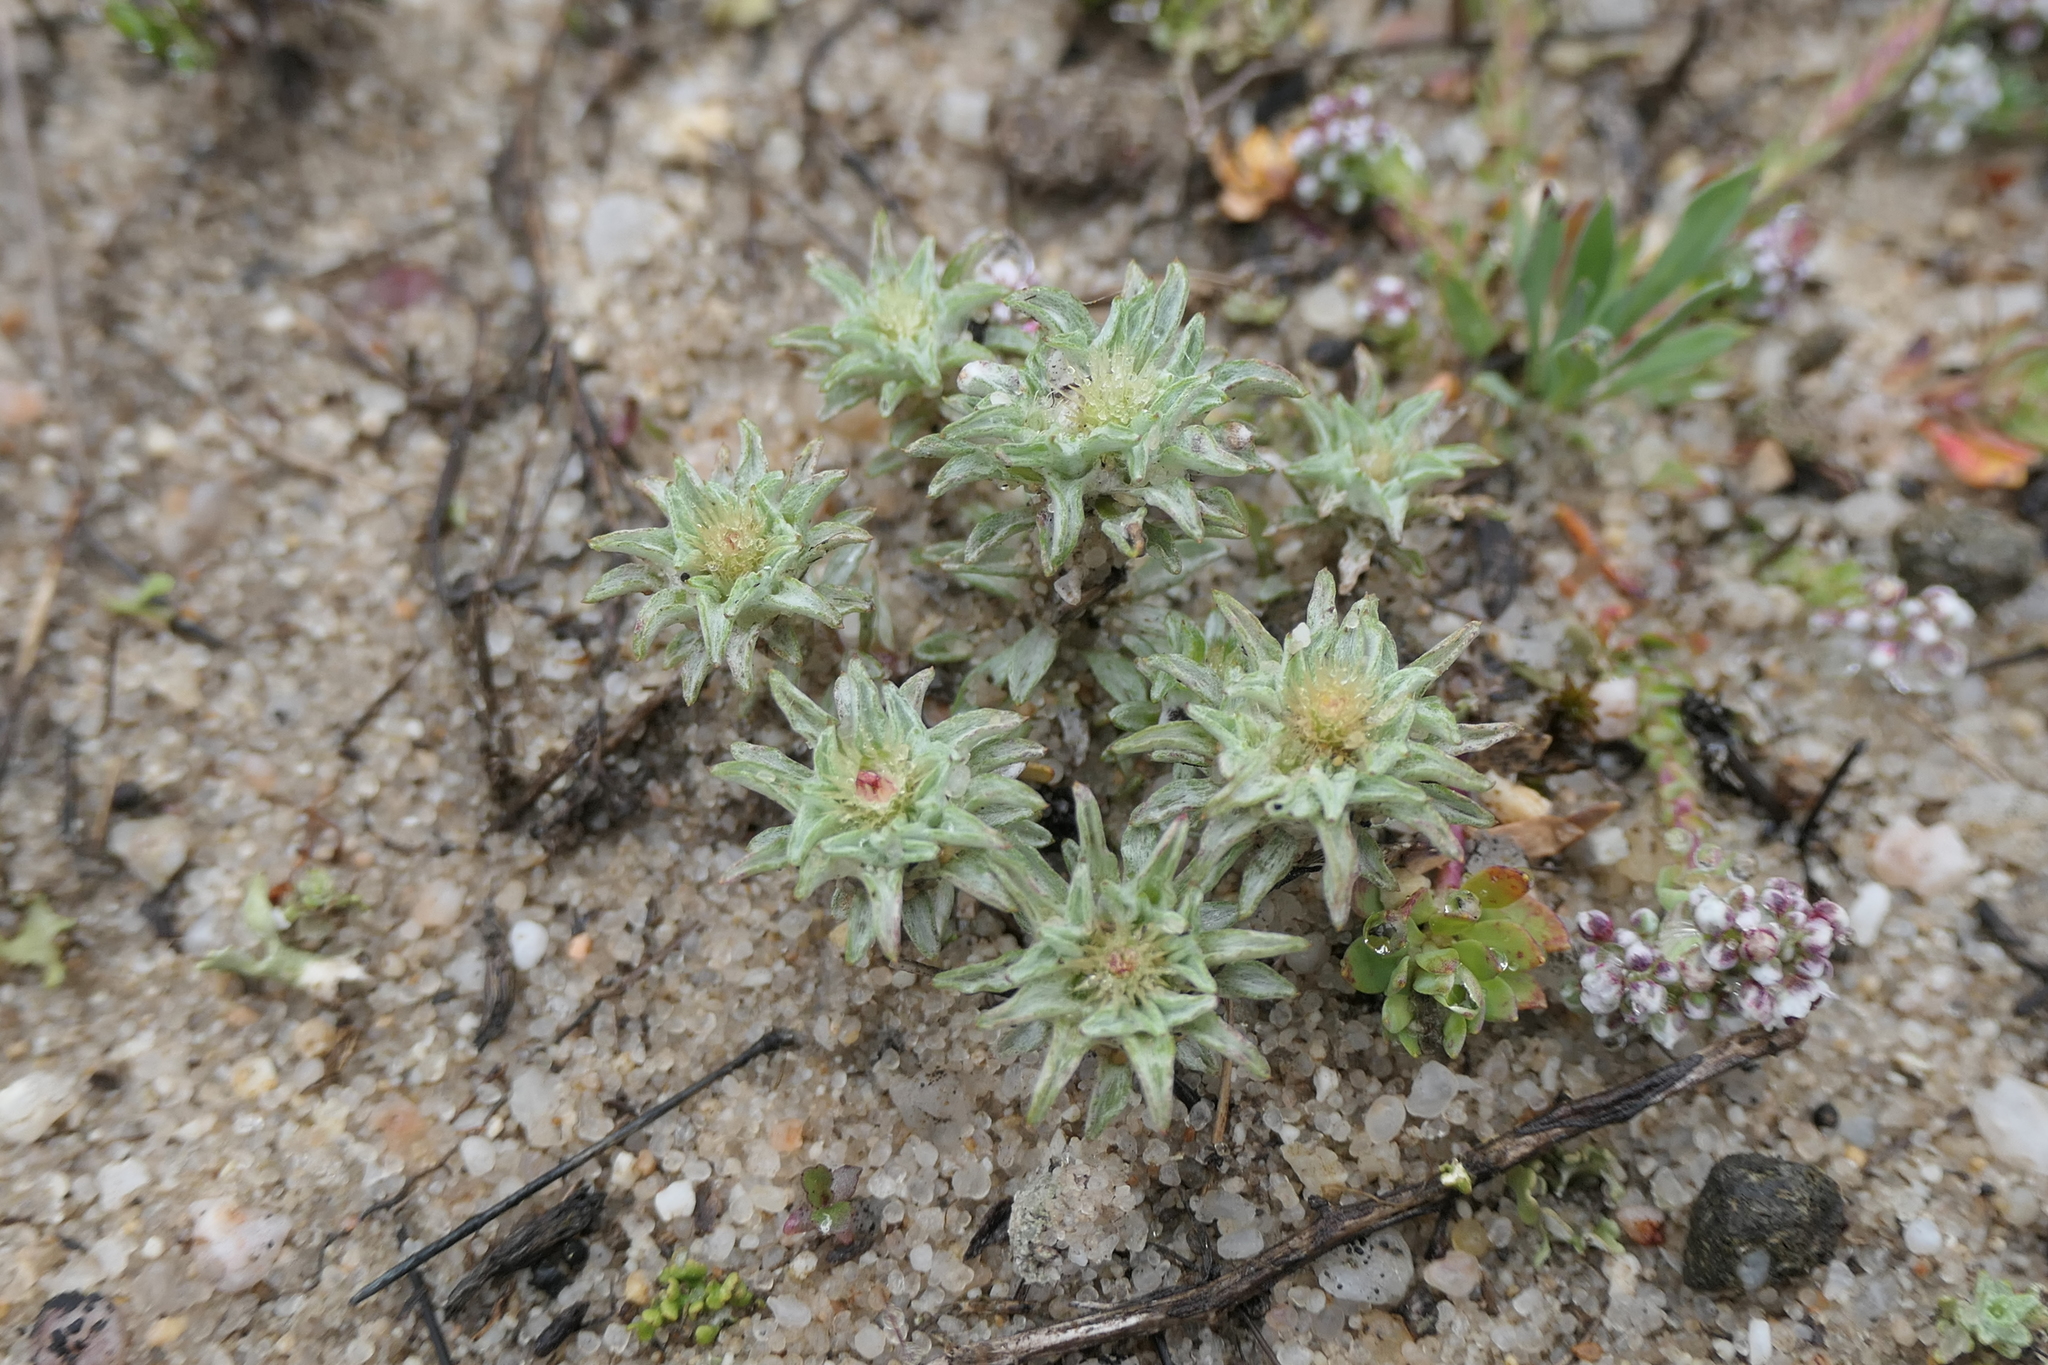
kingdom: Plantae
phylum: Tracheophyta
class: Magnoliopsida
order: Asterales
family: Asteraceae
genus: Filago
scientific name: Filago carpetana
